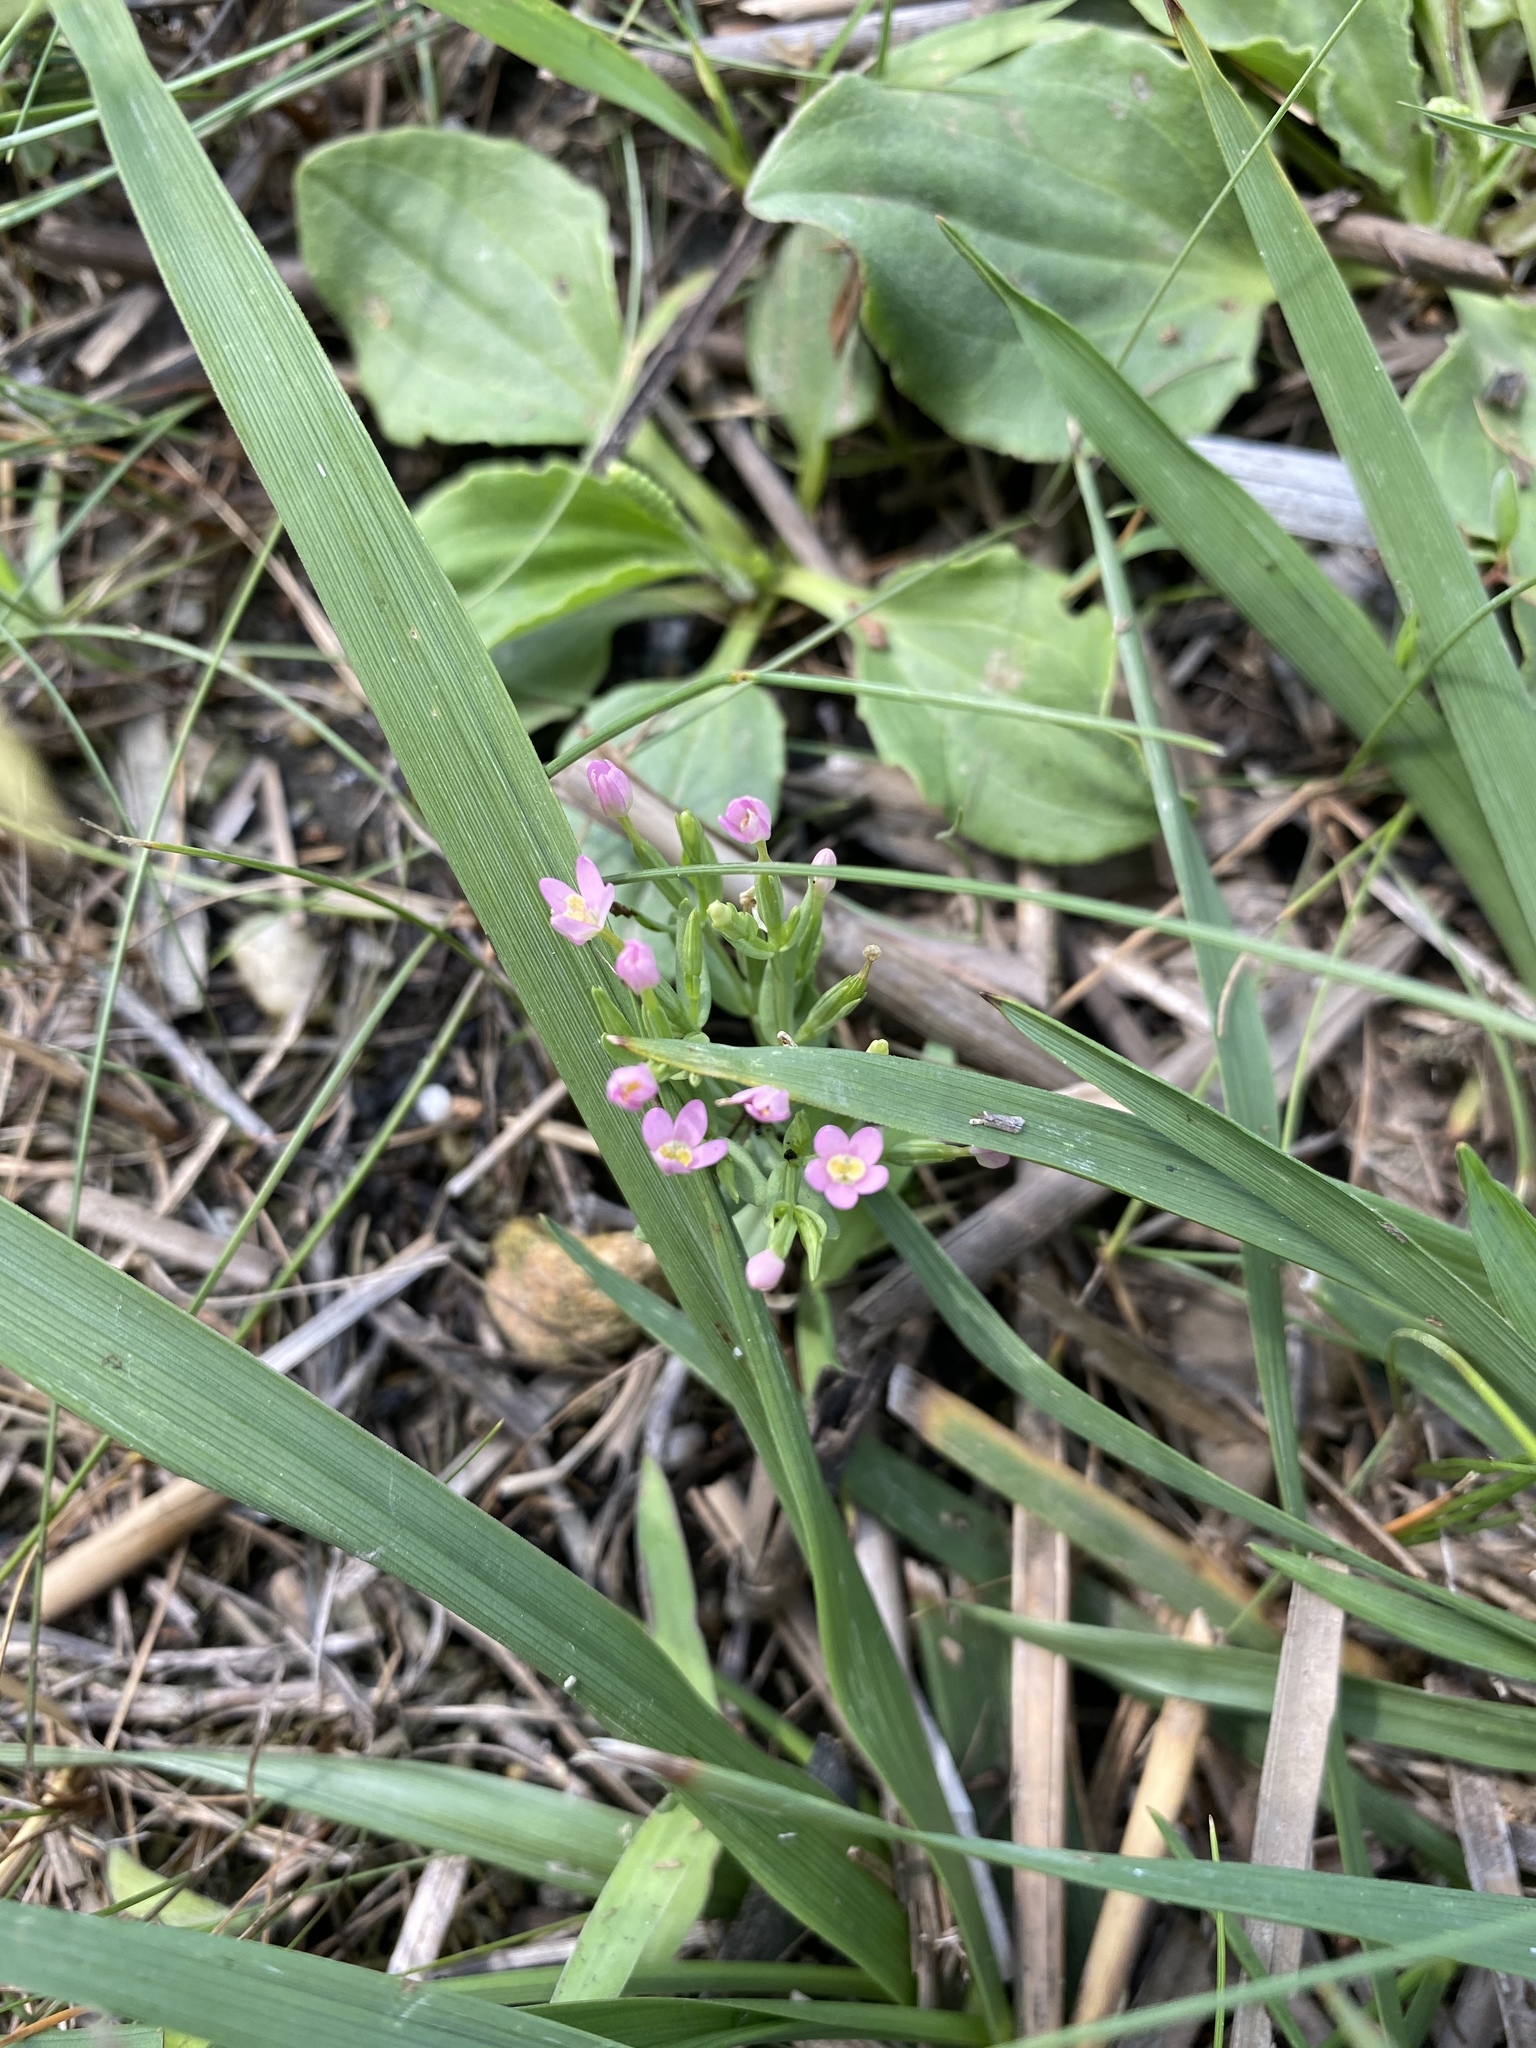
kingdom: Plantae
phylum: Tracheophyta
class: Magnoliopsida
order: Gentianales
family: Gentianaceae
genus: Centaurium
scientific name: Centaurium pulchellum
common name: Lesser centaury
